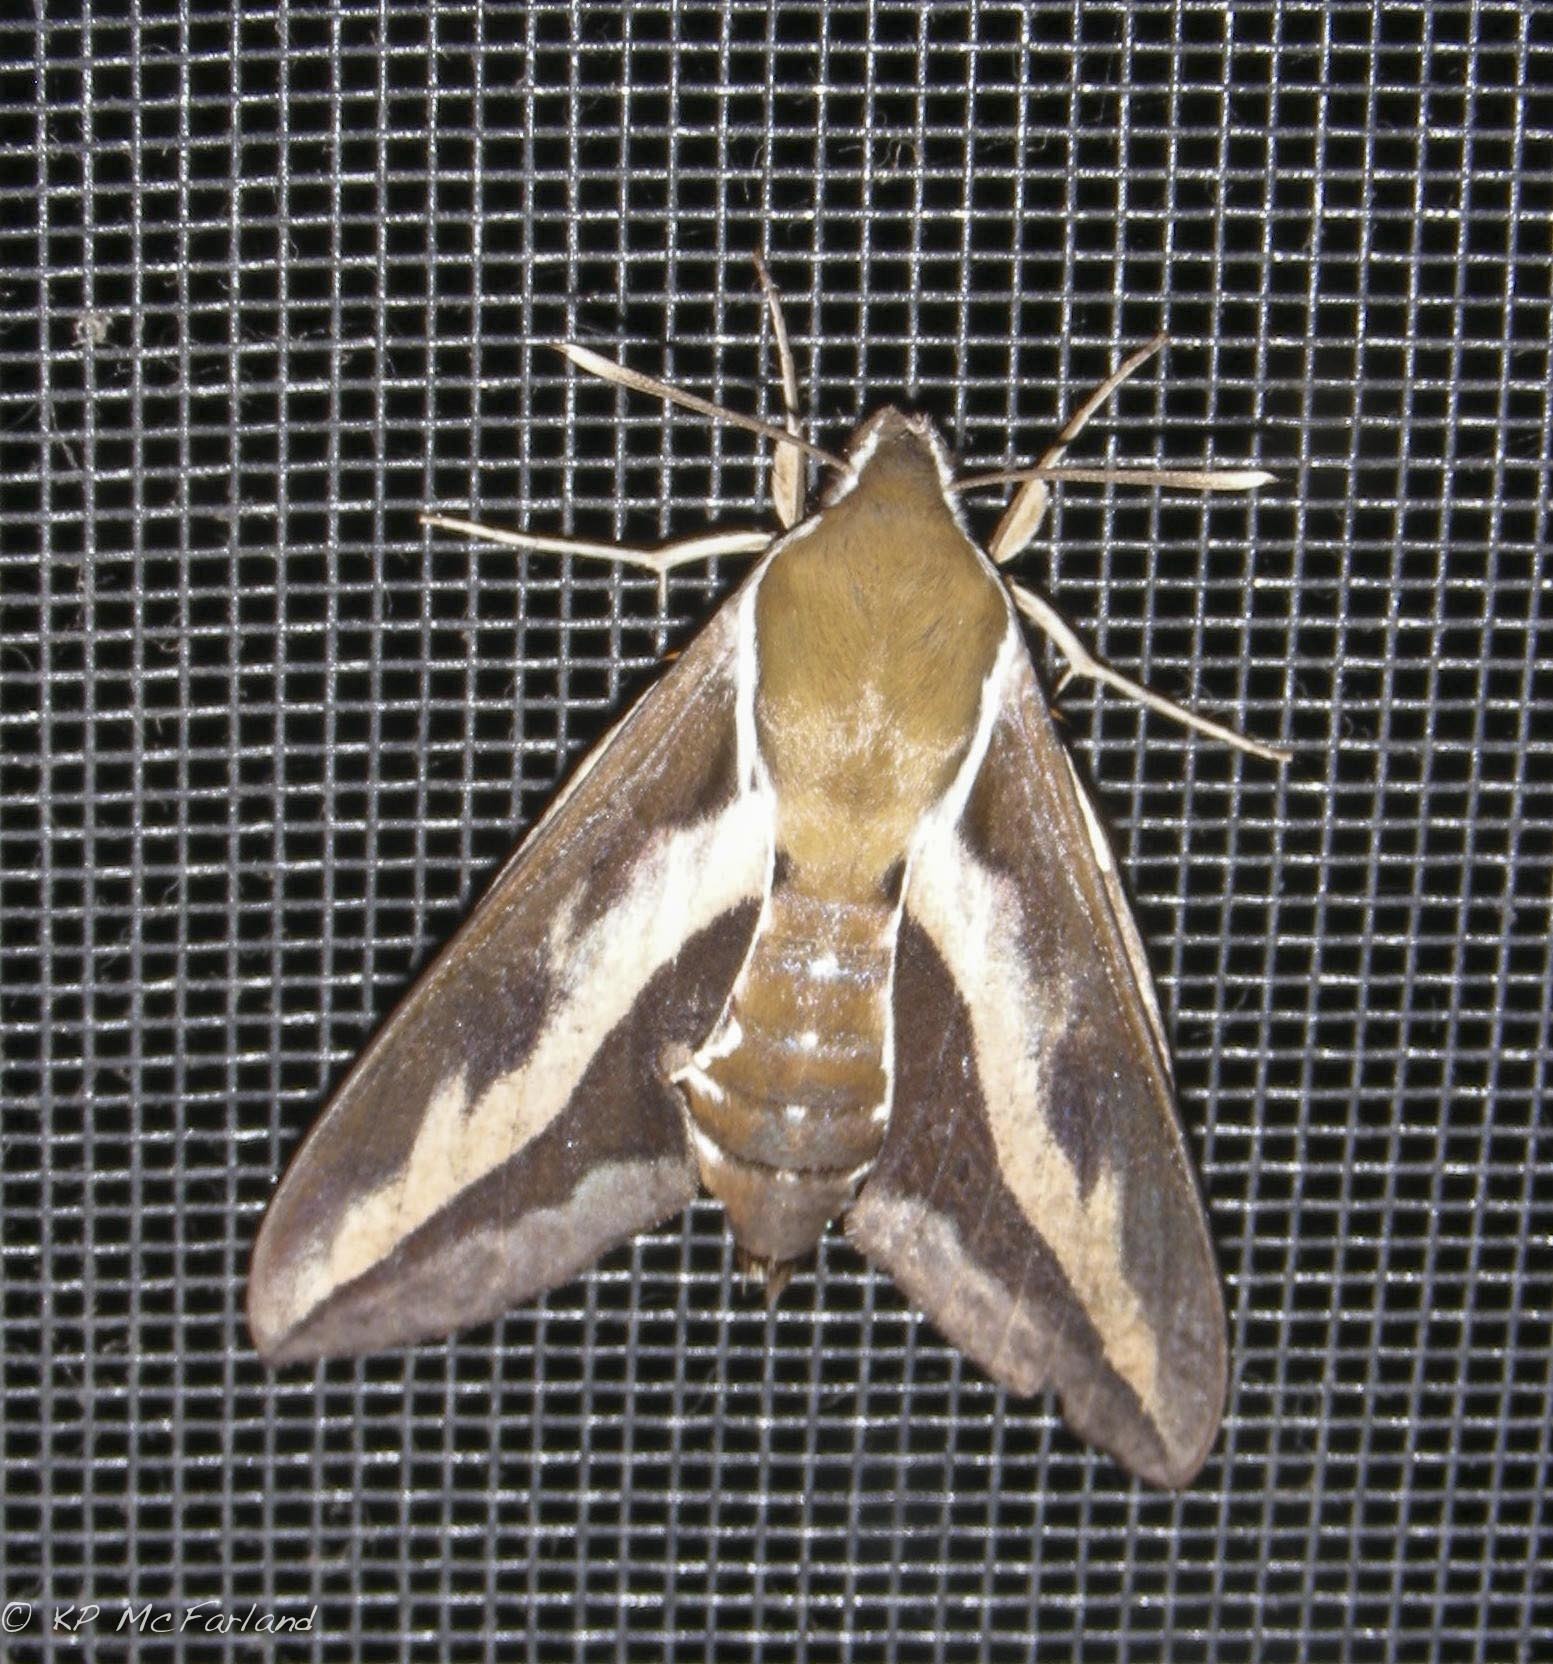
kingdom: Animalia
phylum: Arthropoda
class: Insecta
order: Lepidoptera
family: Sphingidae
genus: Hyles
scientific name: Hyles gallii
